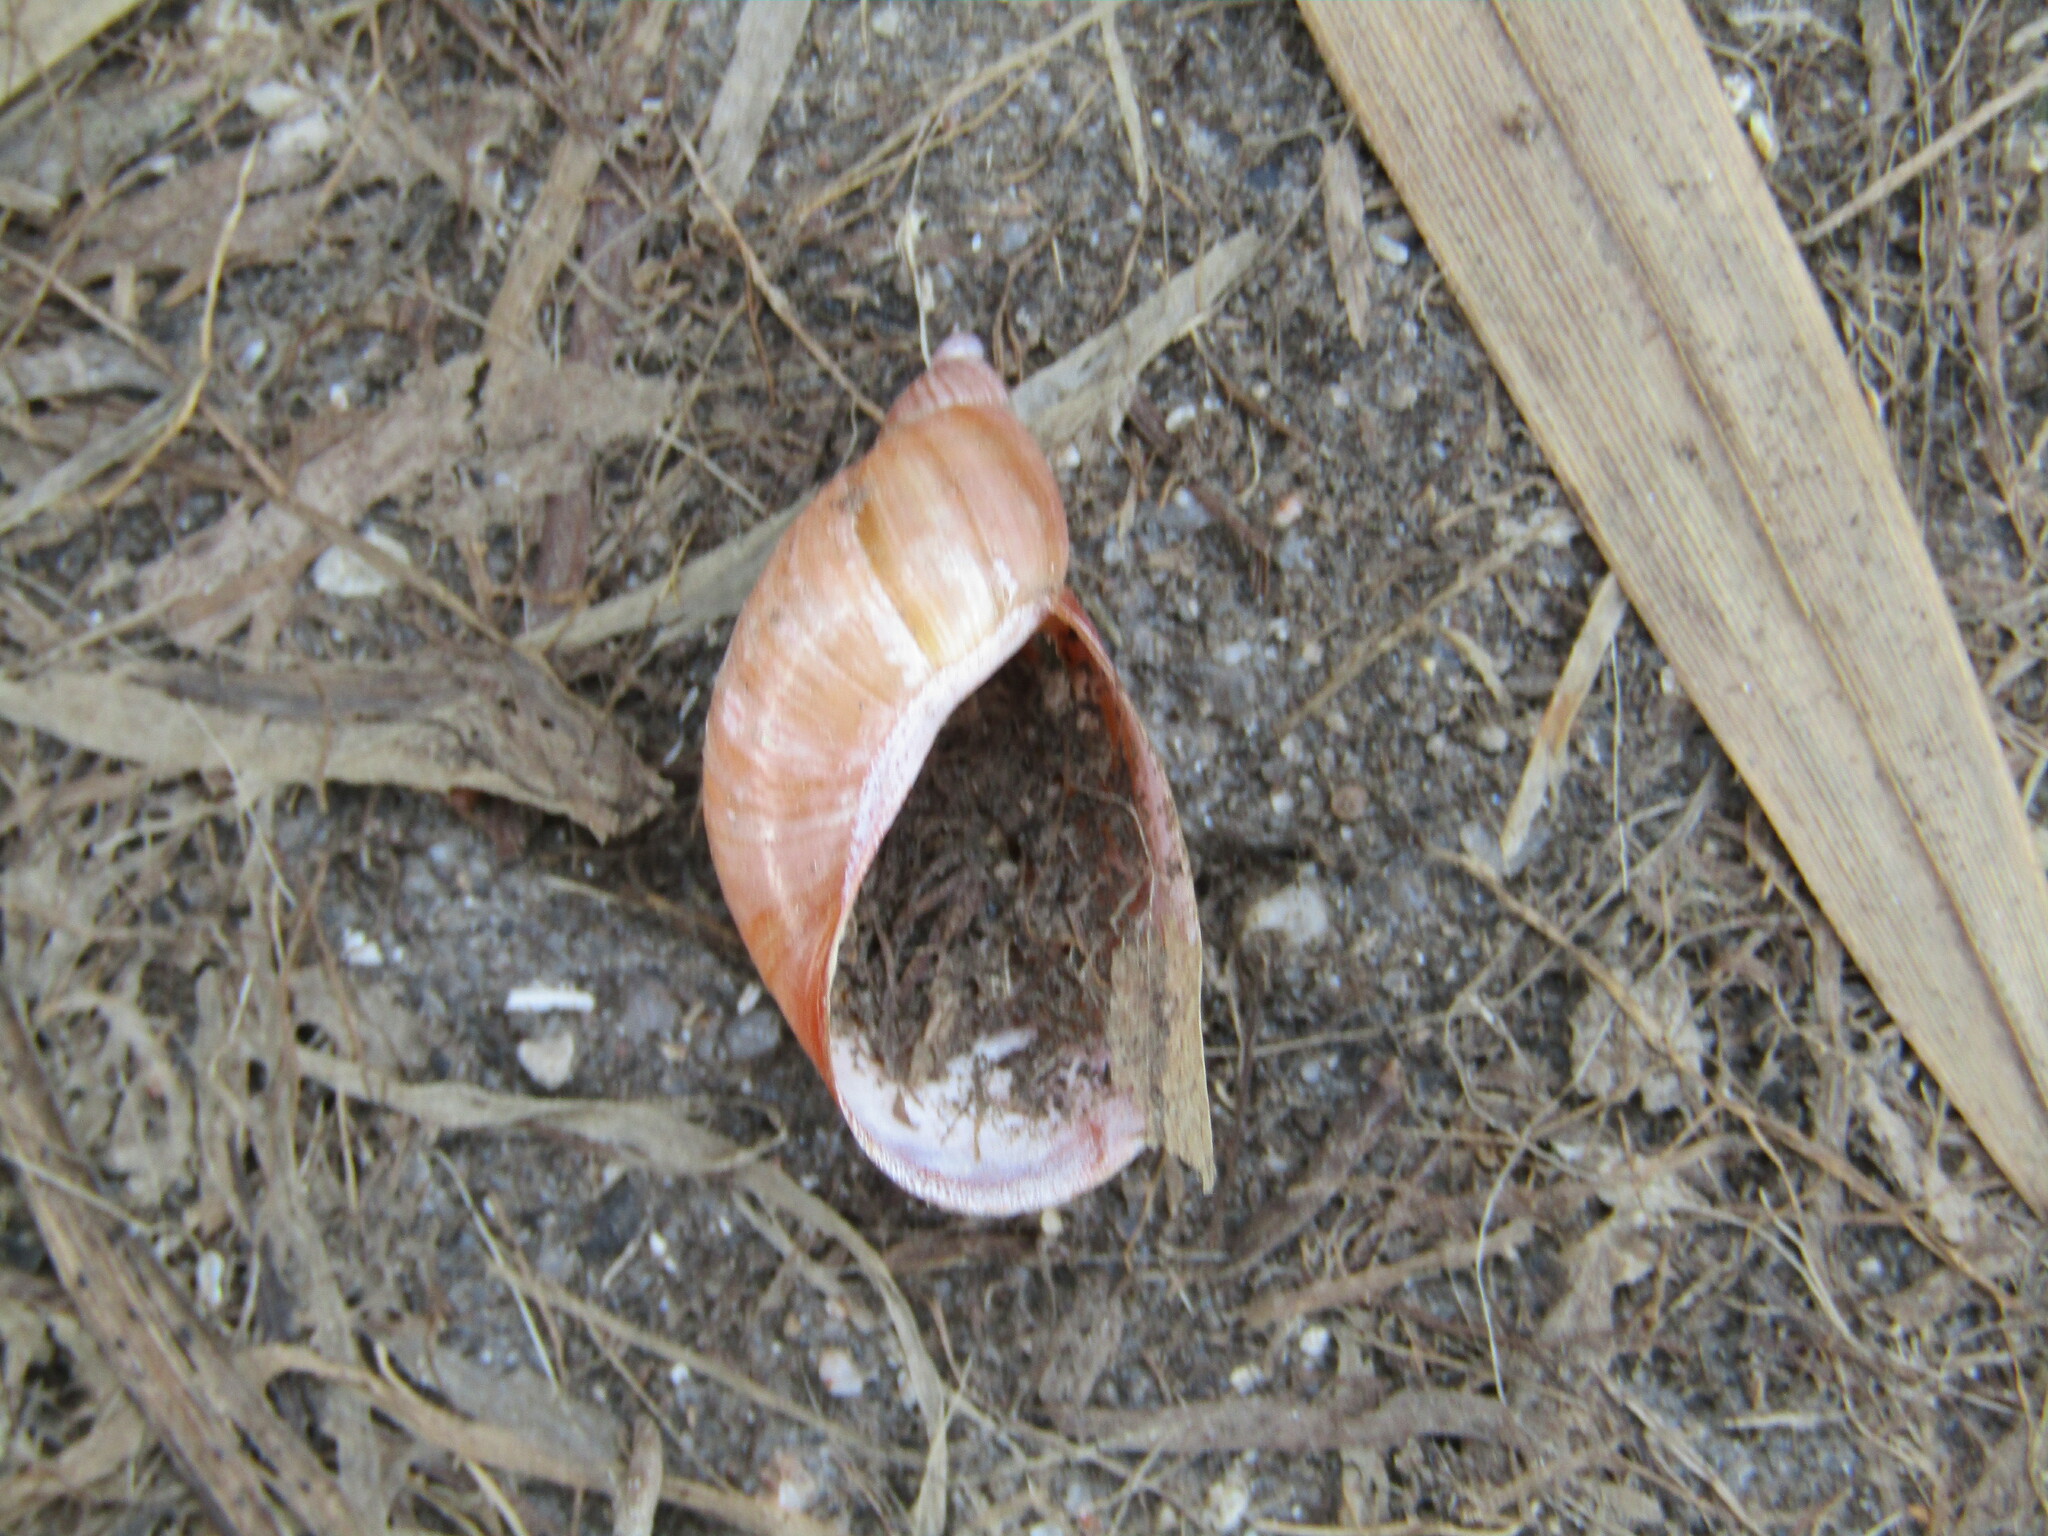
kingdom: Animalia
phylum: Mollusca
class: Gastropoda
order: Stylommatophora
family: Succineidae
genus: Succinea
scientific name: Succinea putris
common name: European ambersnail
